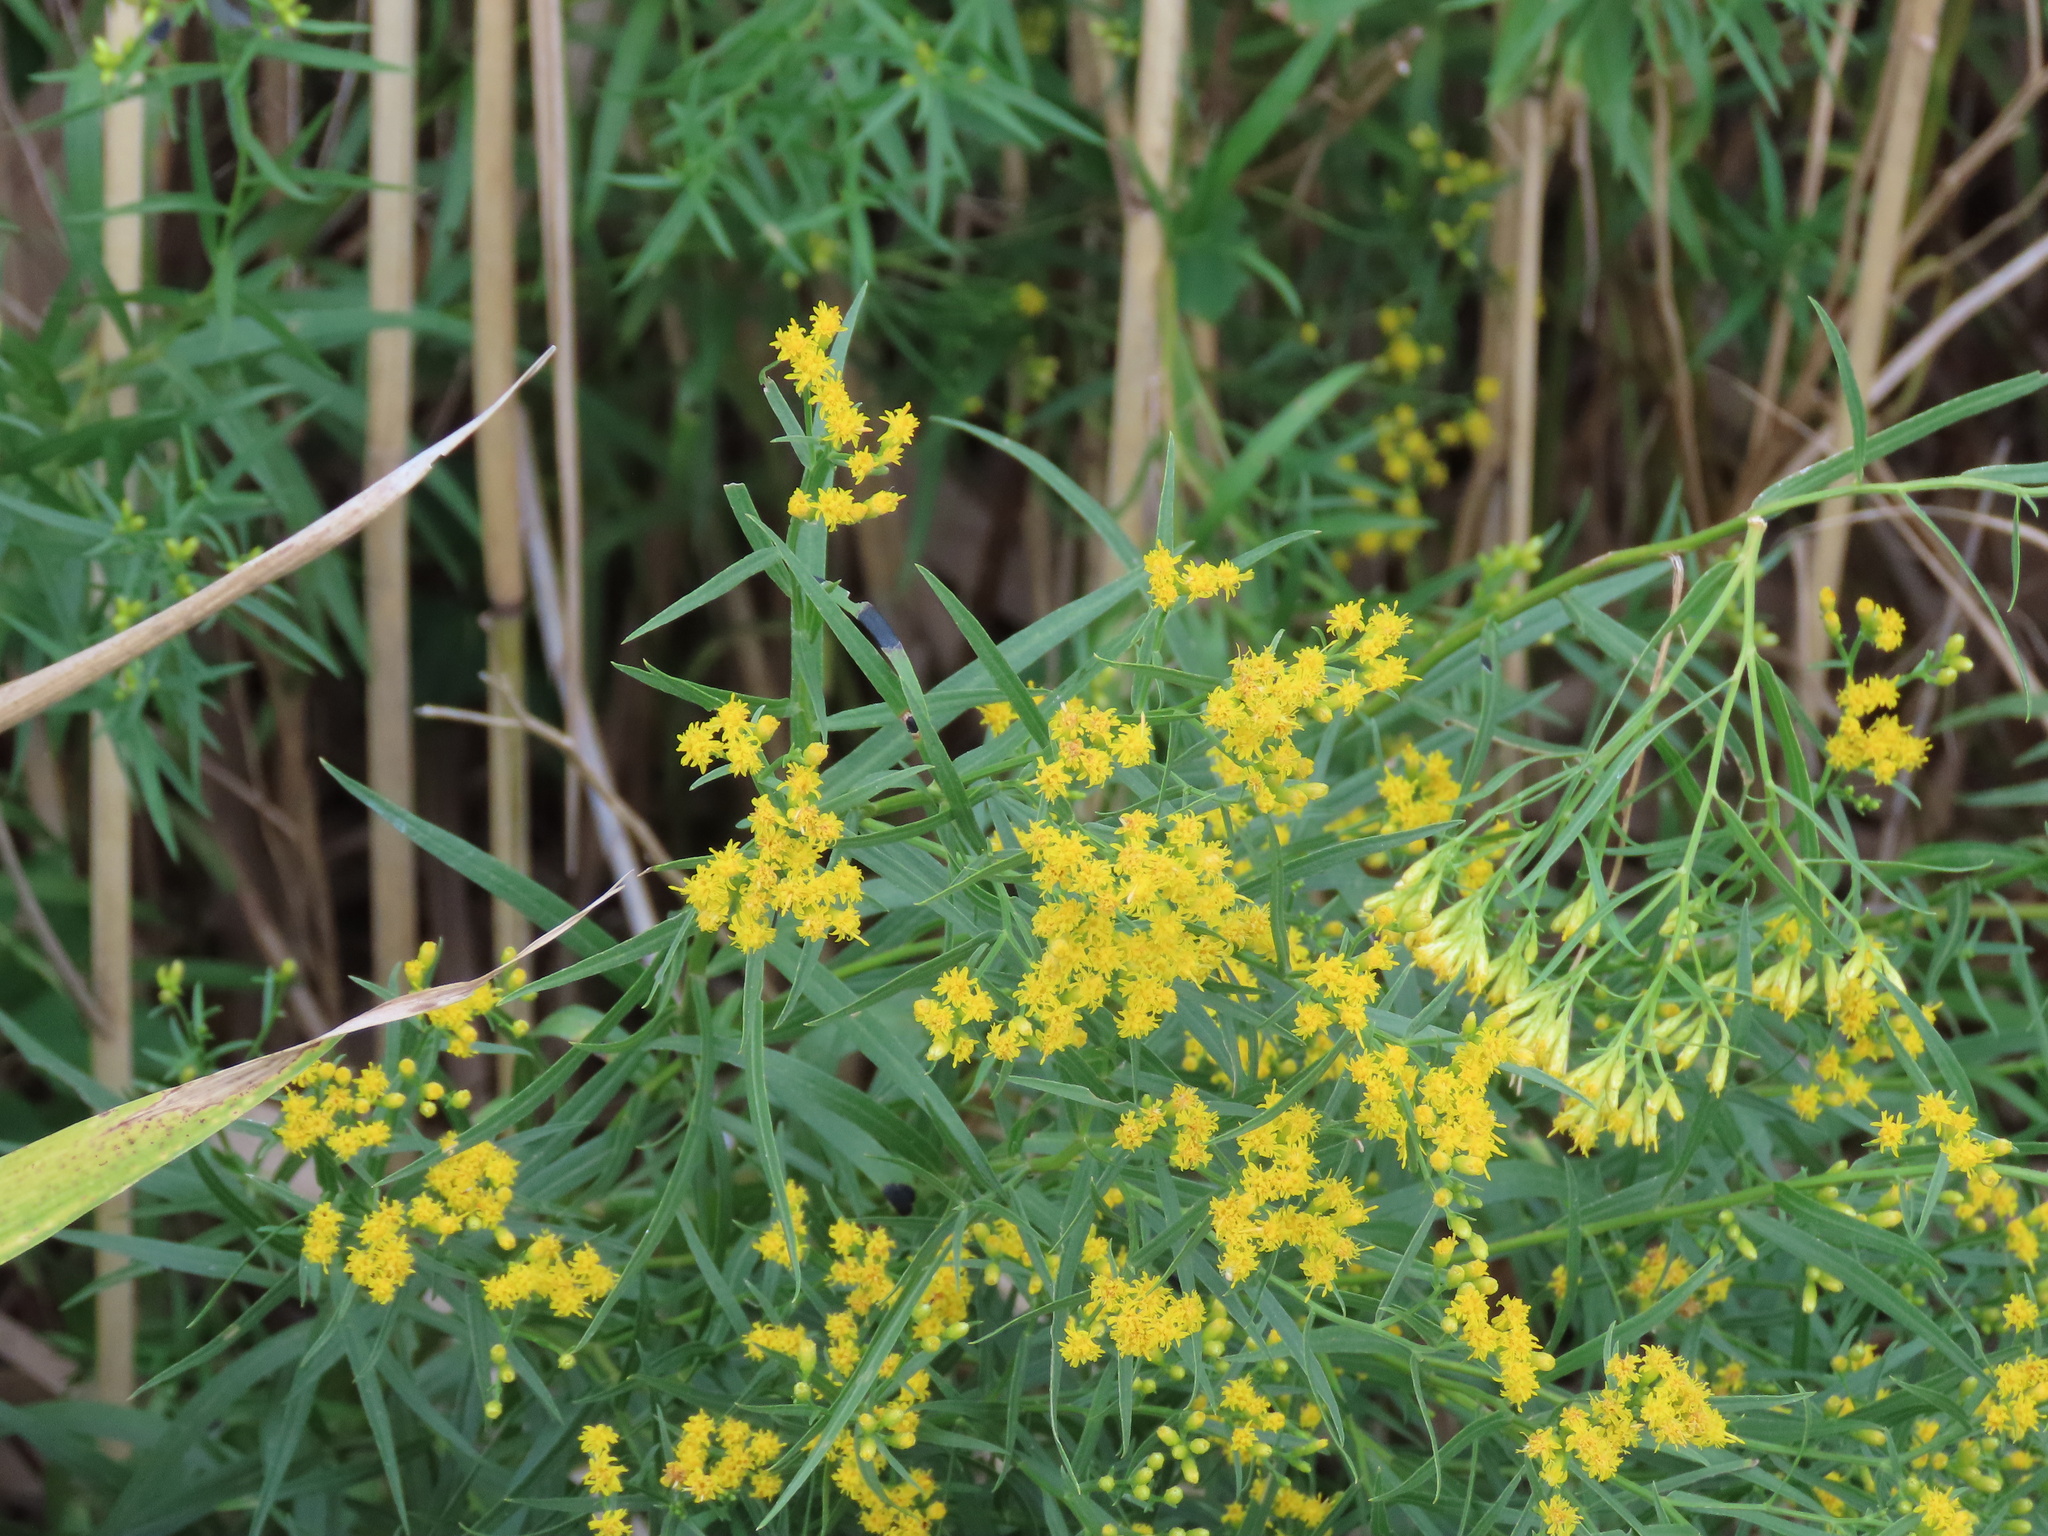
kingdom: Plantae
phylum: Tracheophyta
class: Magnoliopsida
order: Asterales
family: Asteraceae
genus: Euthamia
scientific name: Euthamia graminifolia
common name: Common goldentop
